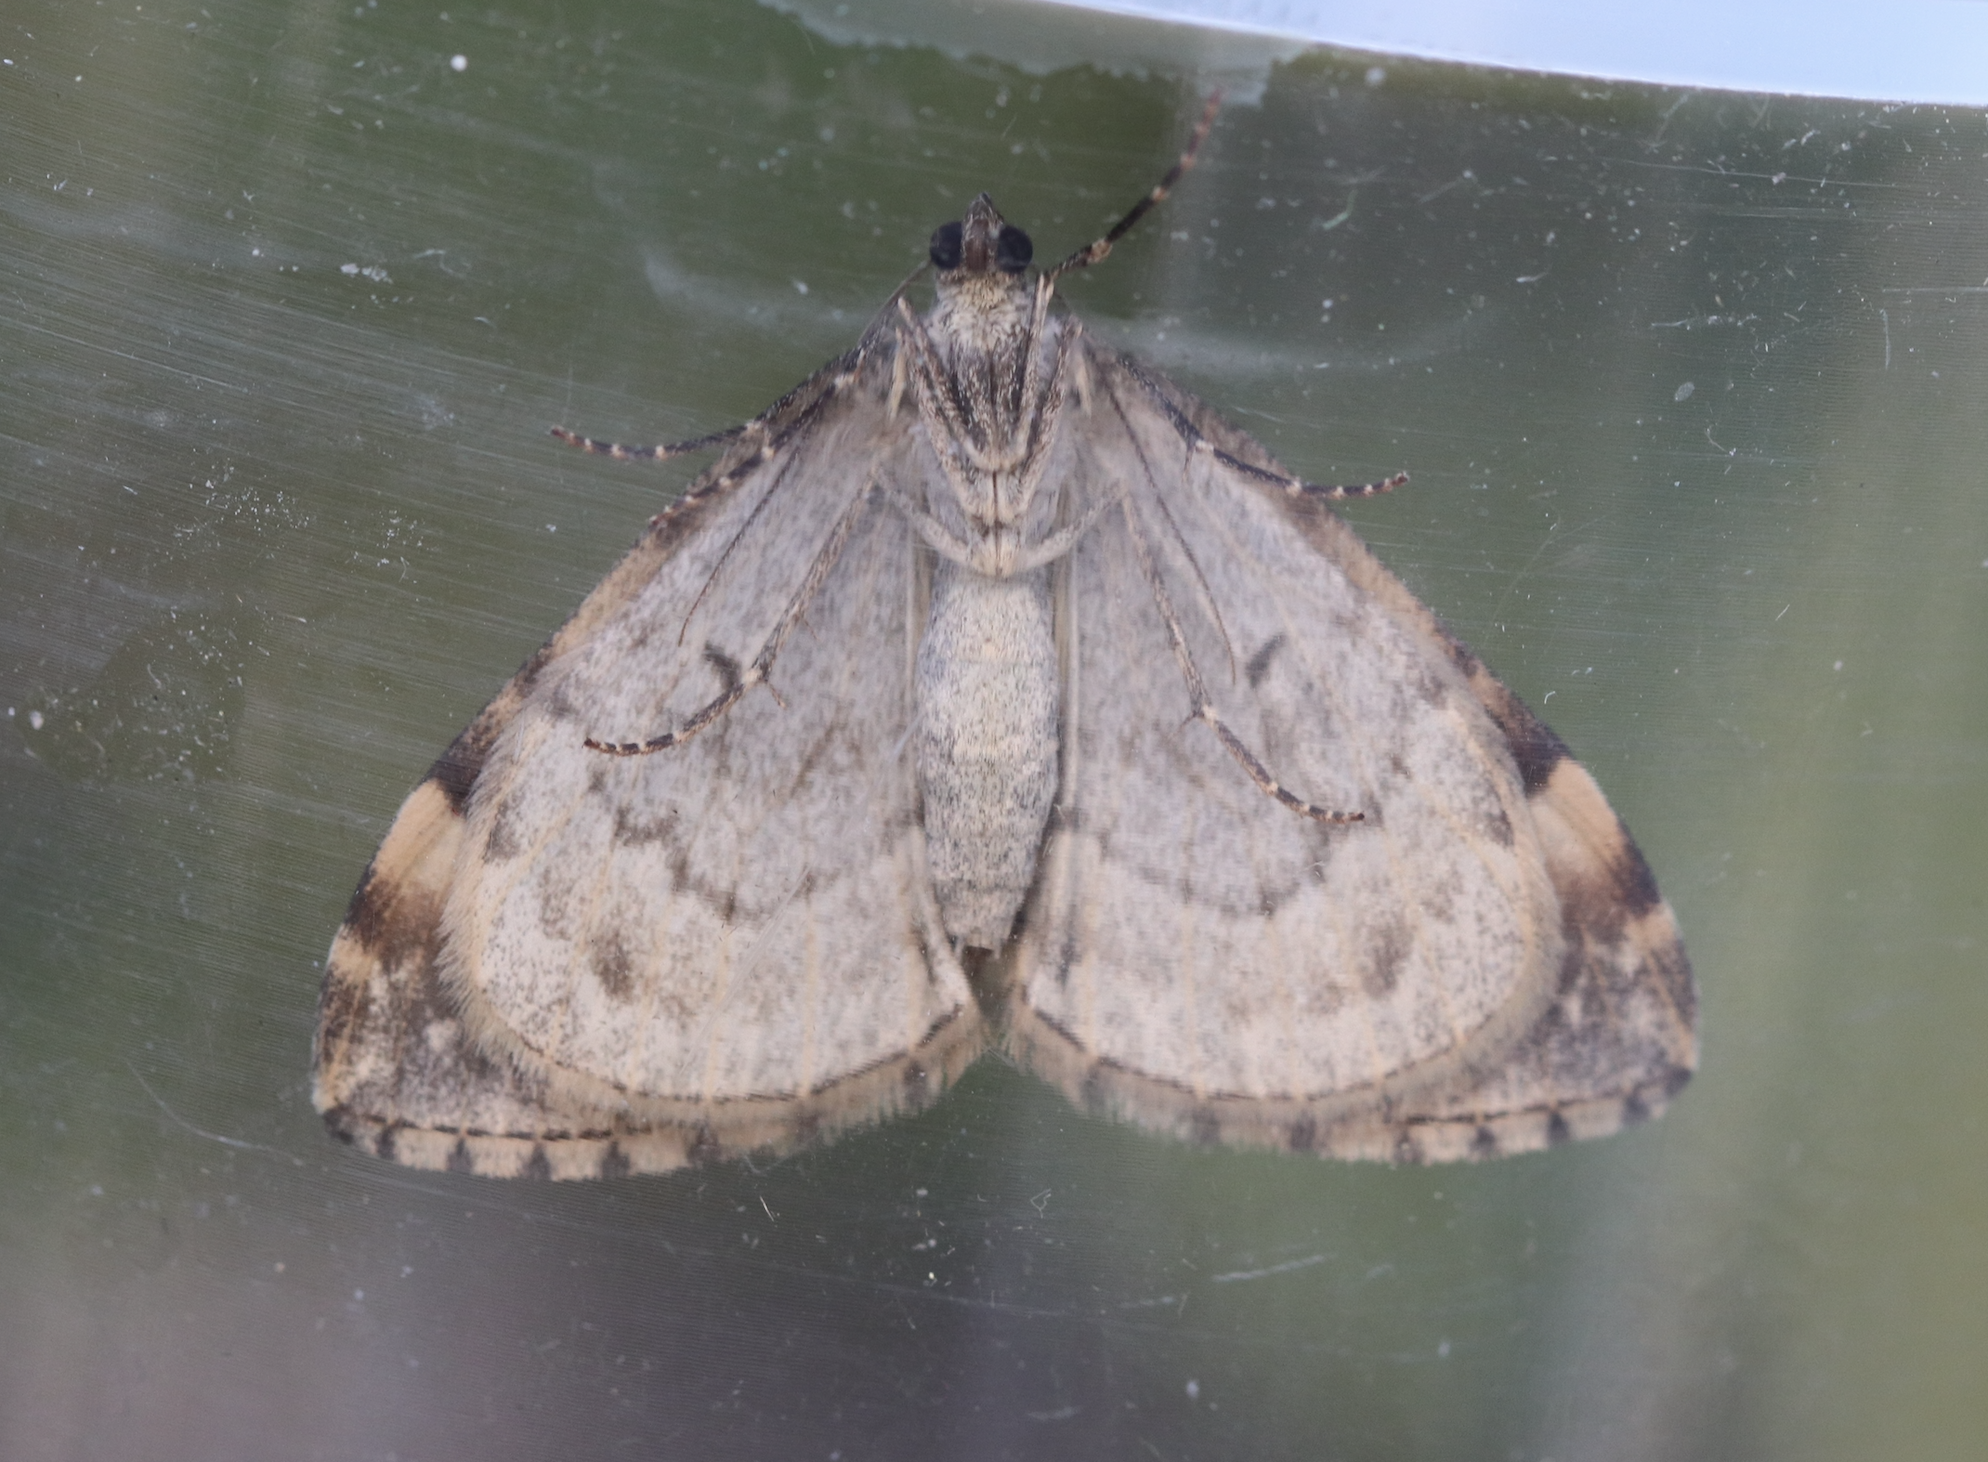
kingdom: Animalia
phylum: Arthropoda
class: Insecta
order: Lepidoptera
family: Geometridae
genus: Dysstroma
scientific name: Dysstroma truncata
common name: Common marbled carpet
